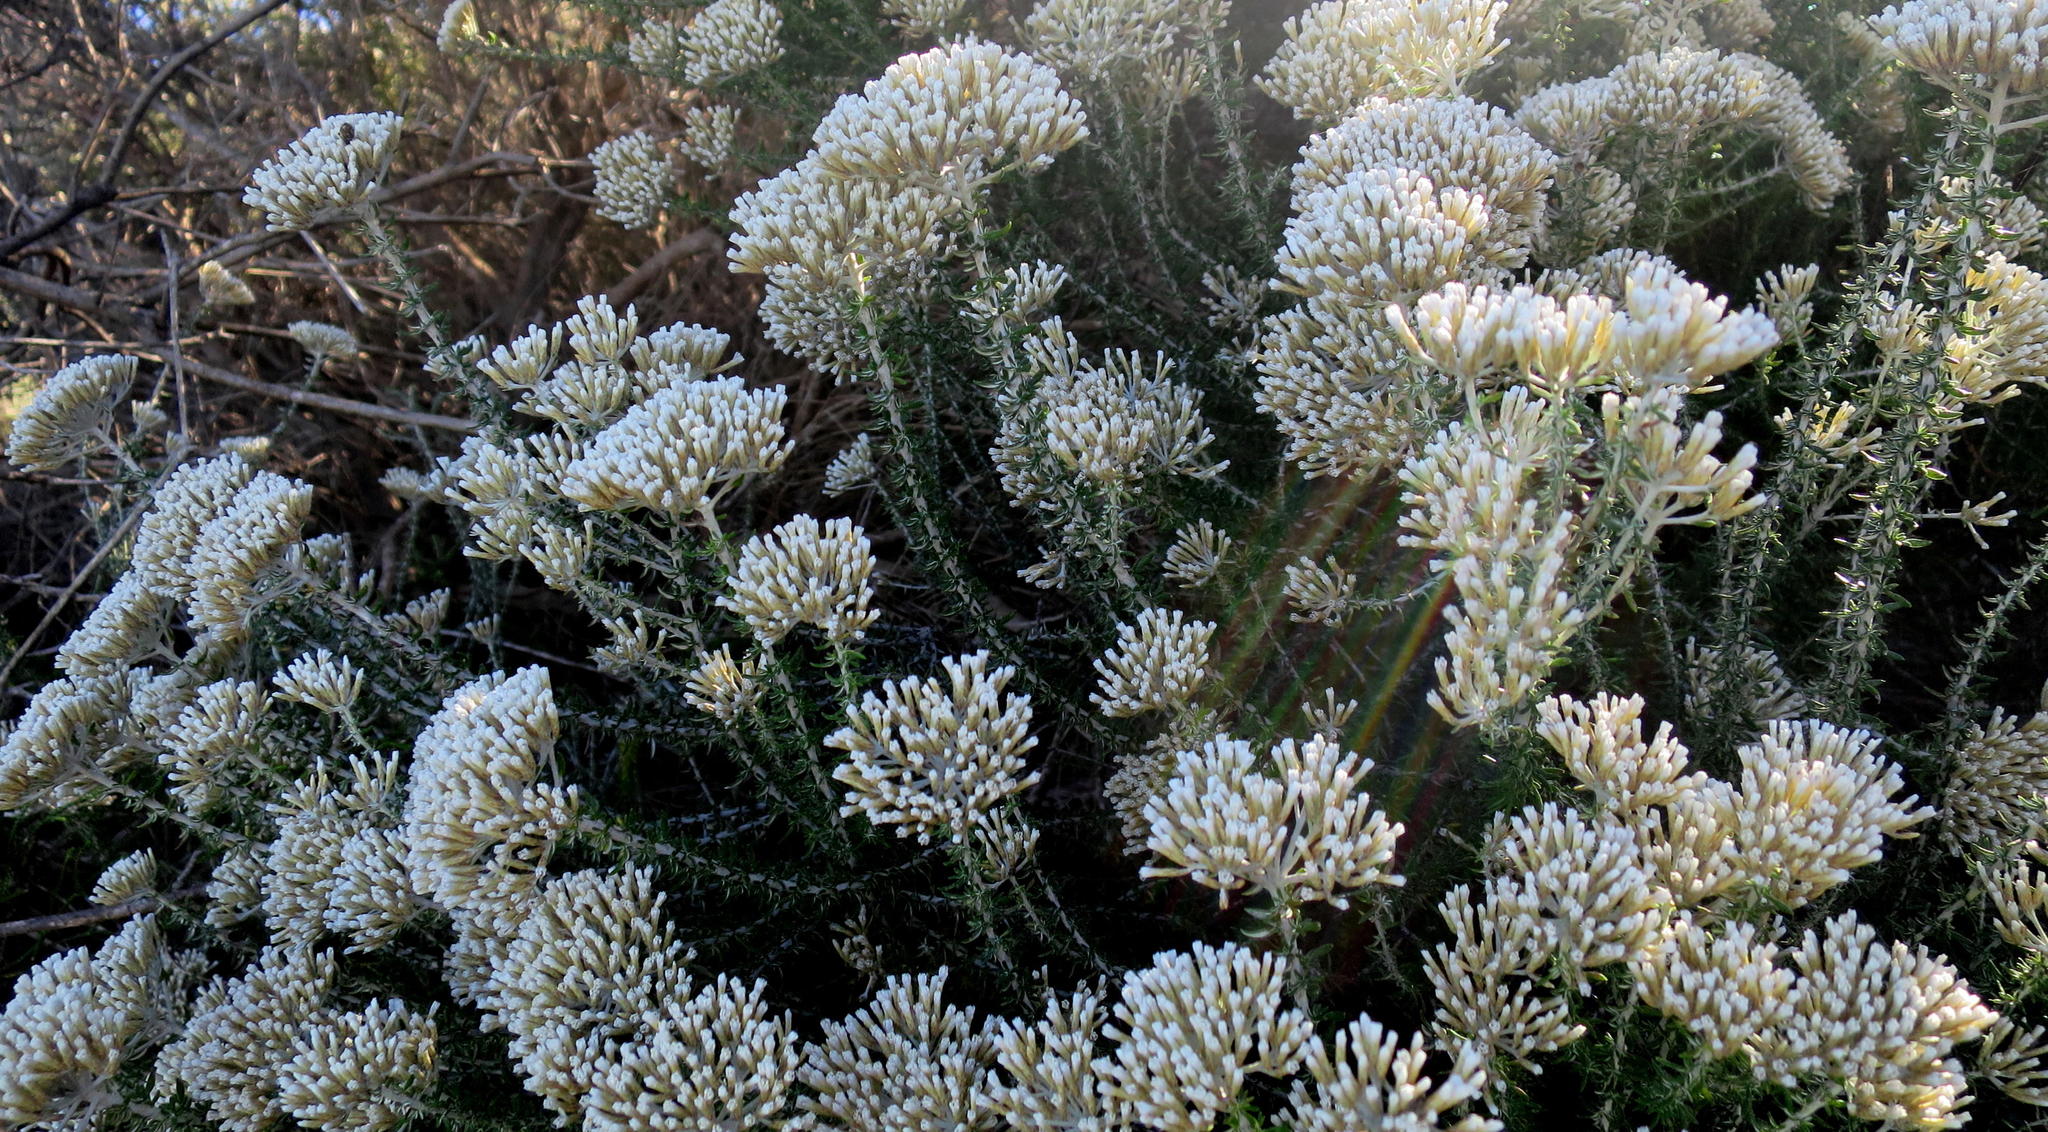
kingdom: Plantae
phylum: Tracheophyta
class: Magnoliopsida
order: Asterales
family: Asteraceae
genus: Metalasia
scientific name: Metalasia muricata
